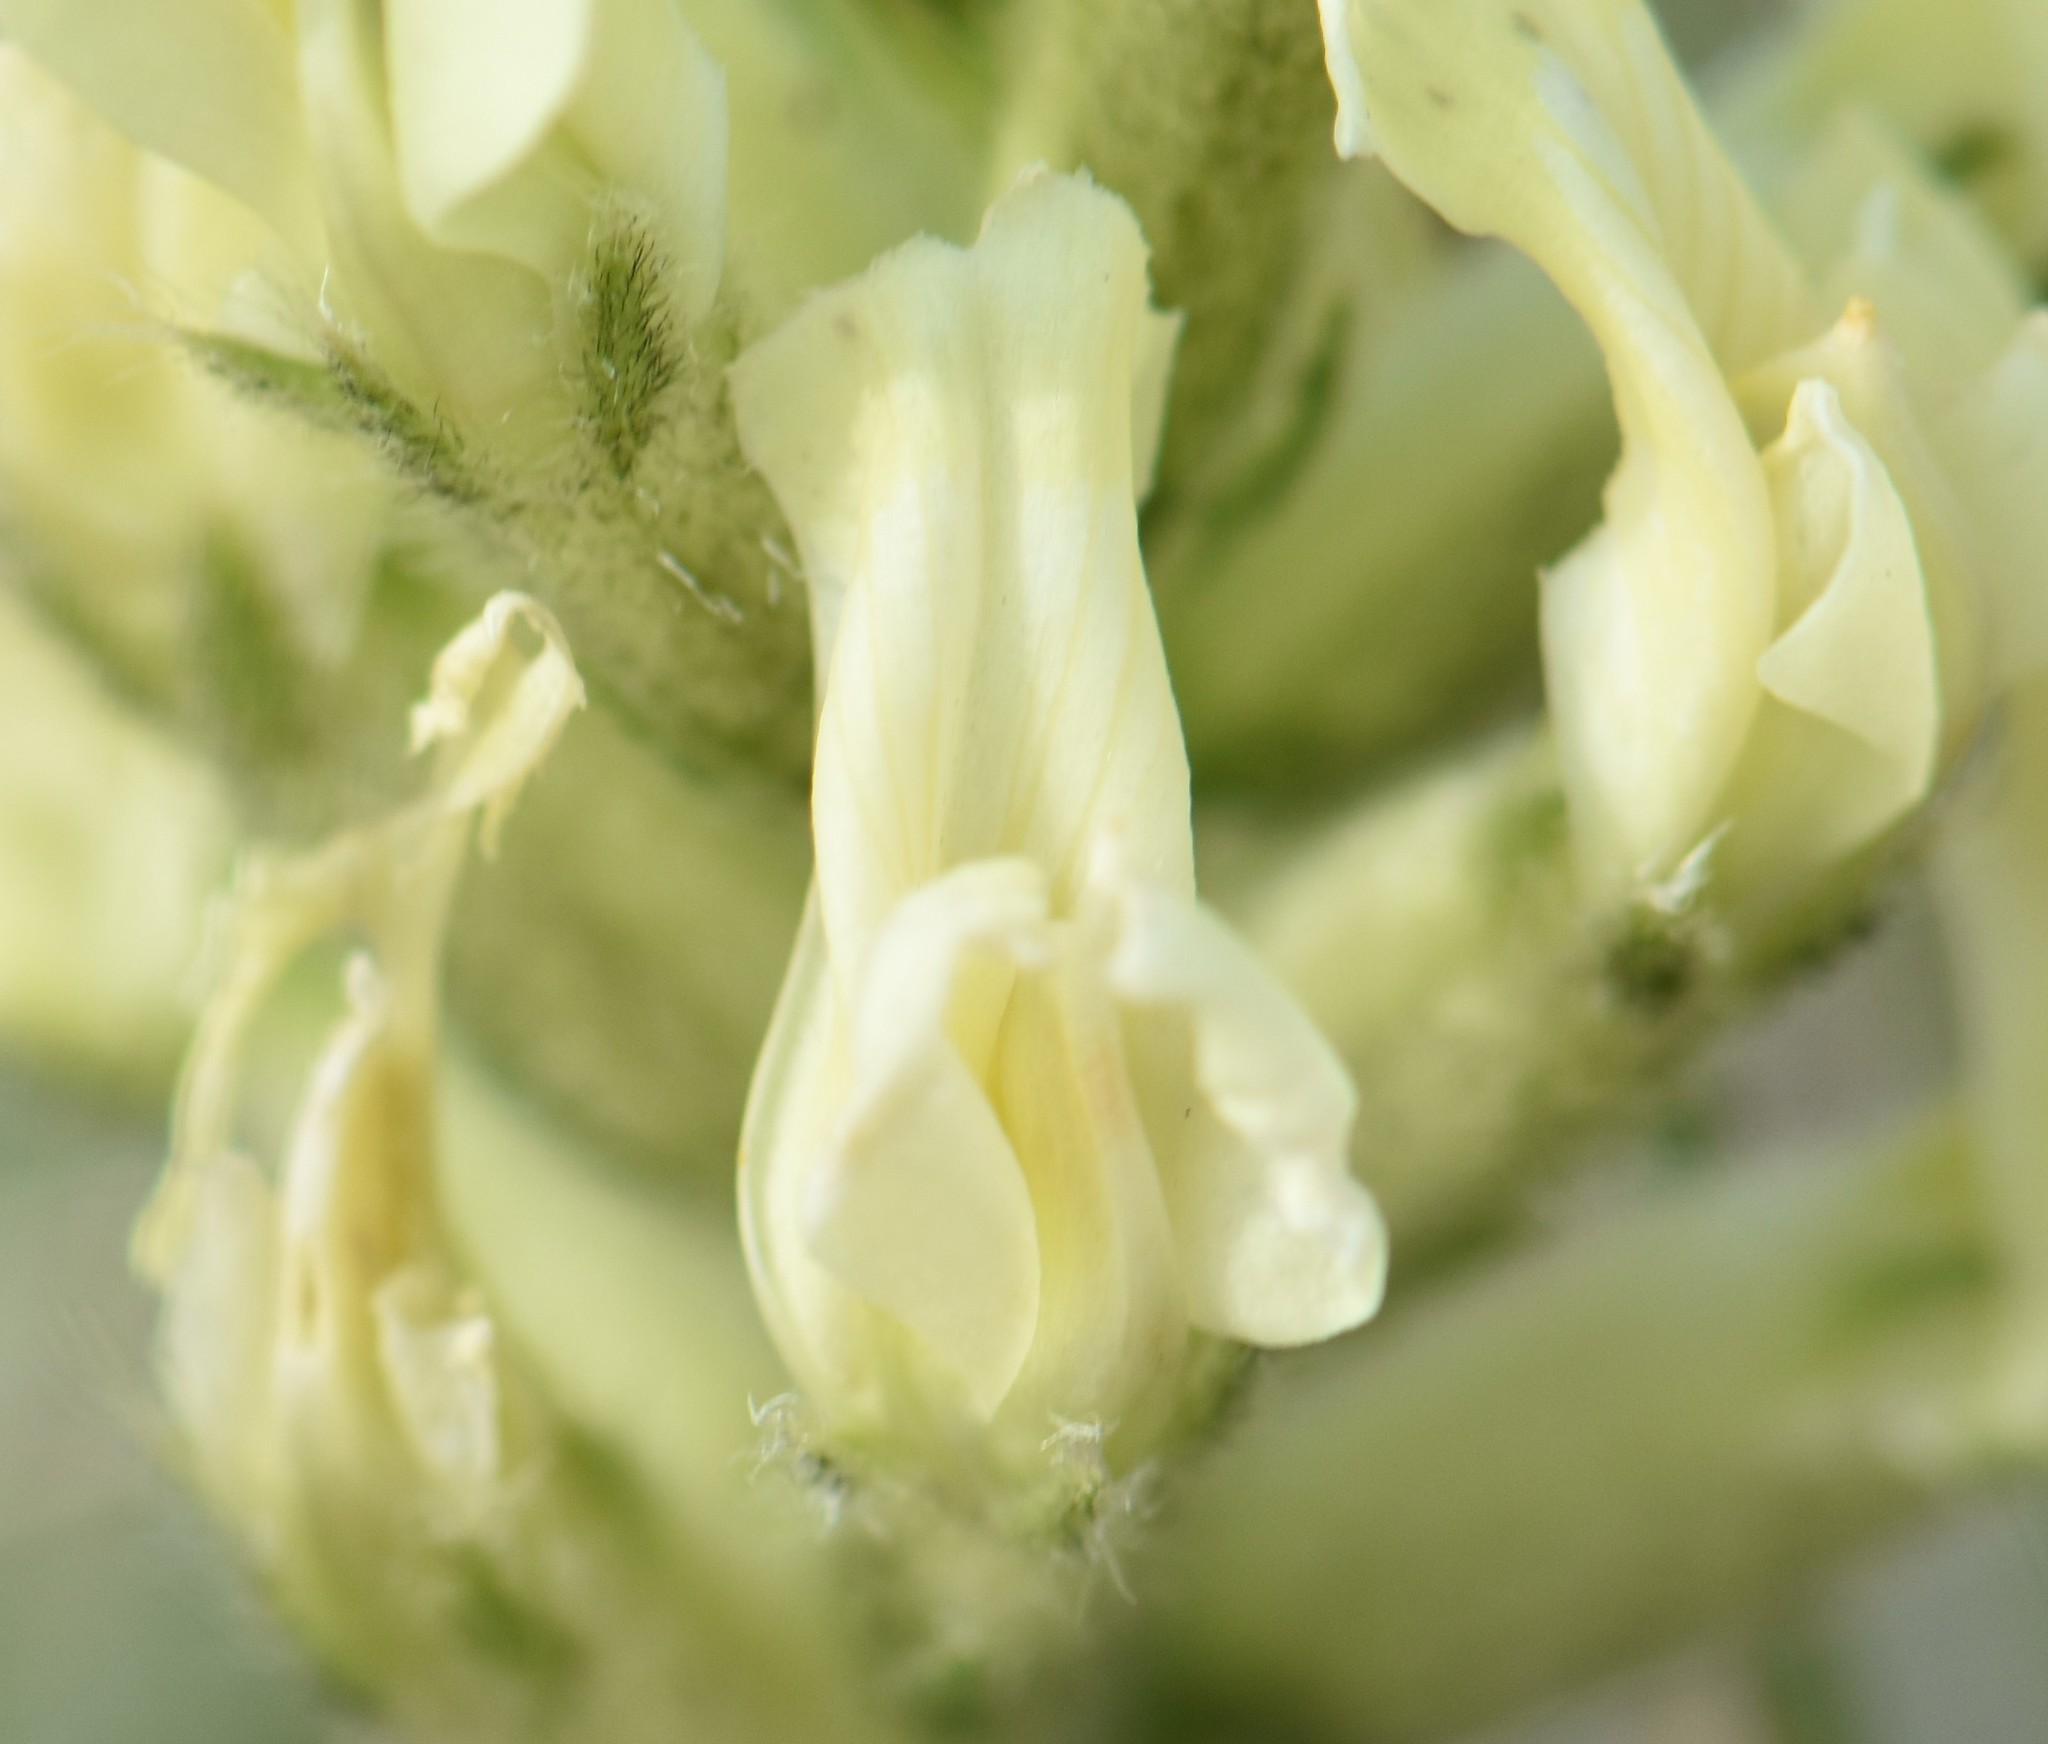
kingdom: Plantae
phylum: Tracheophyta
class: Magnoliopsida
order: Fabales
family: Fabaceae
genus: Oxytropis
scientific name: Oxytropis sericea
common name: Silky locoweed
